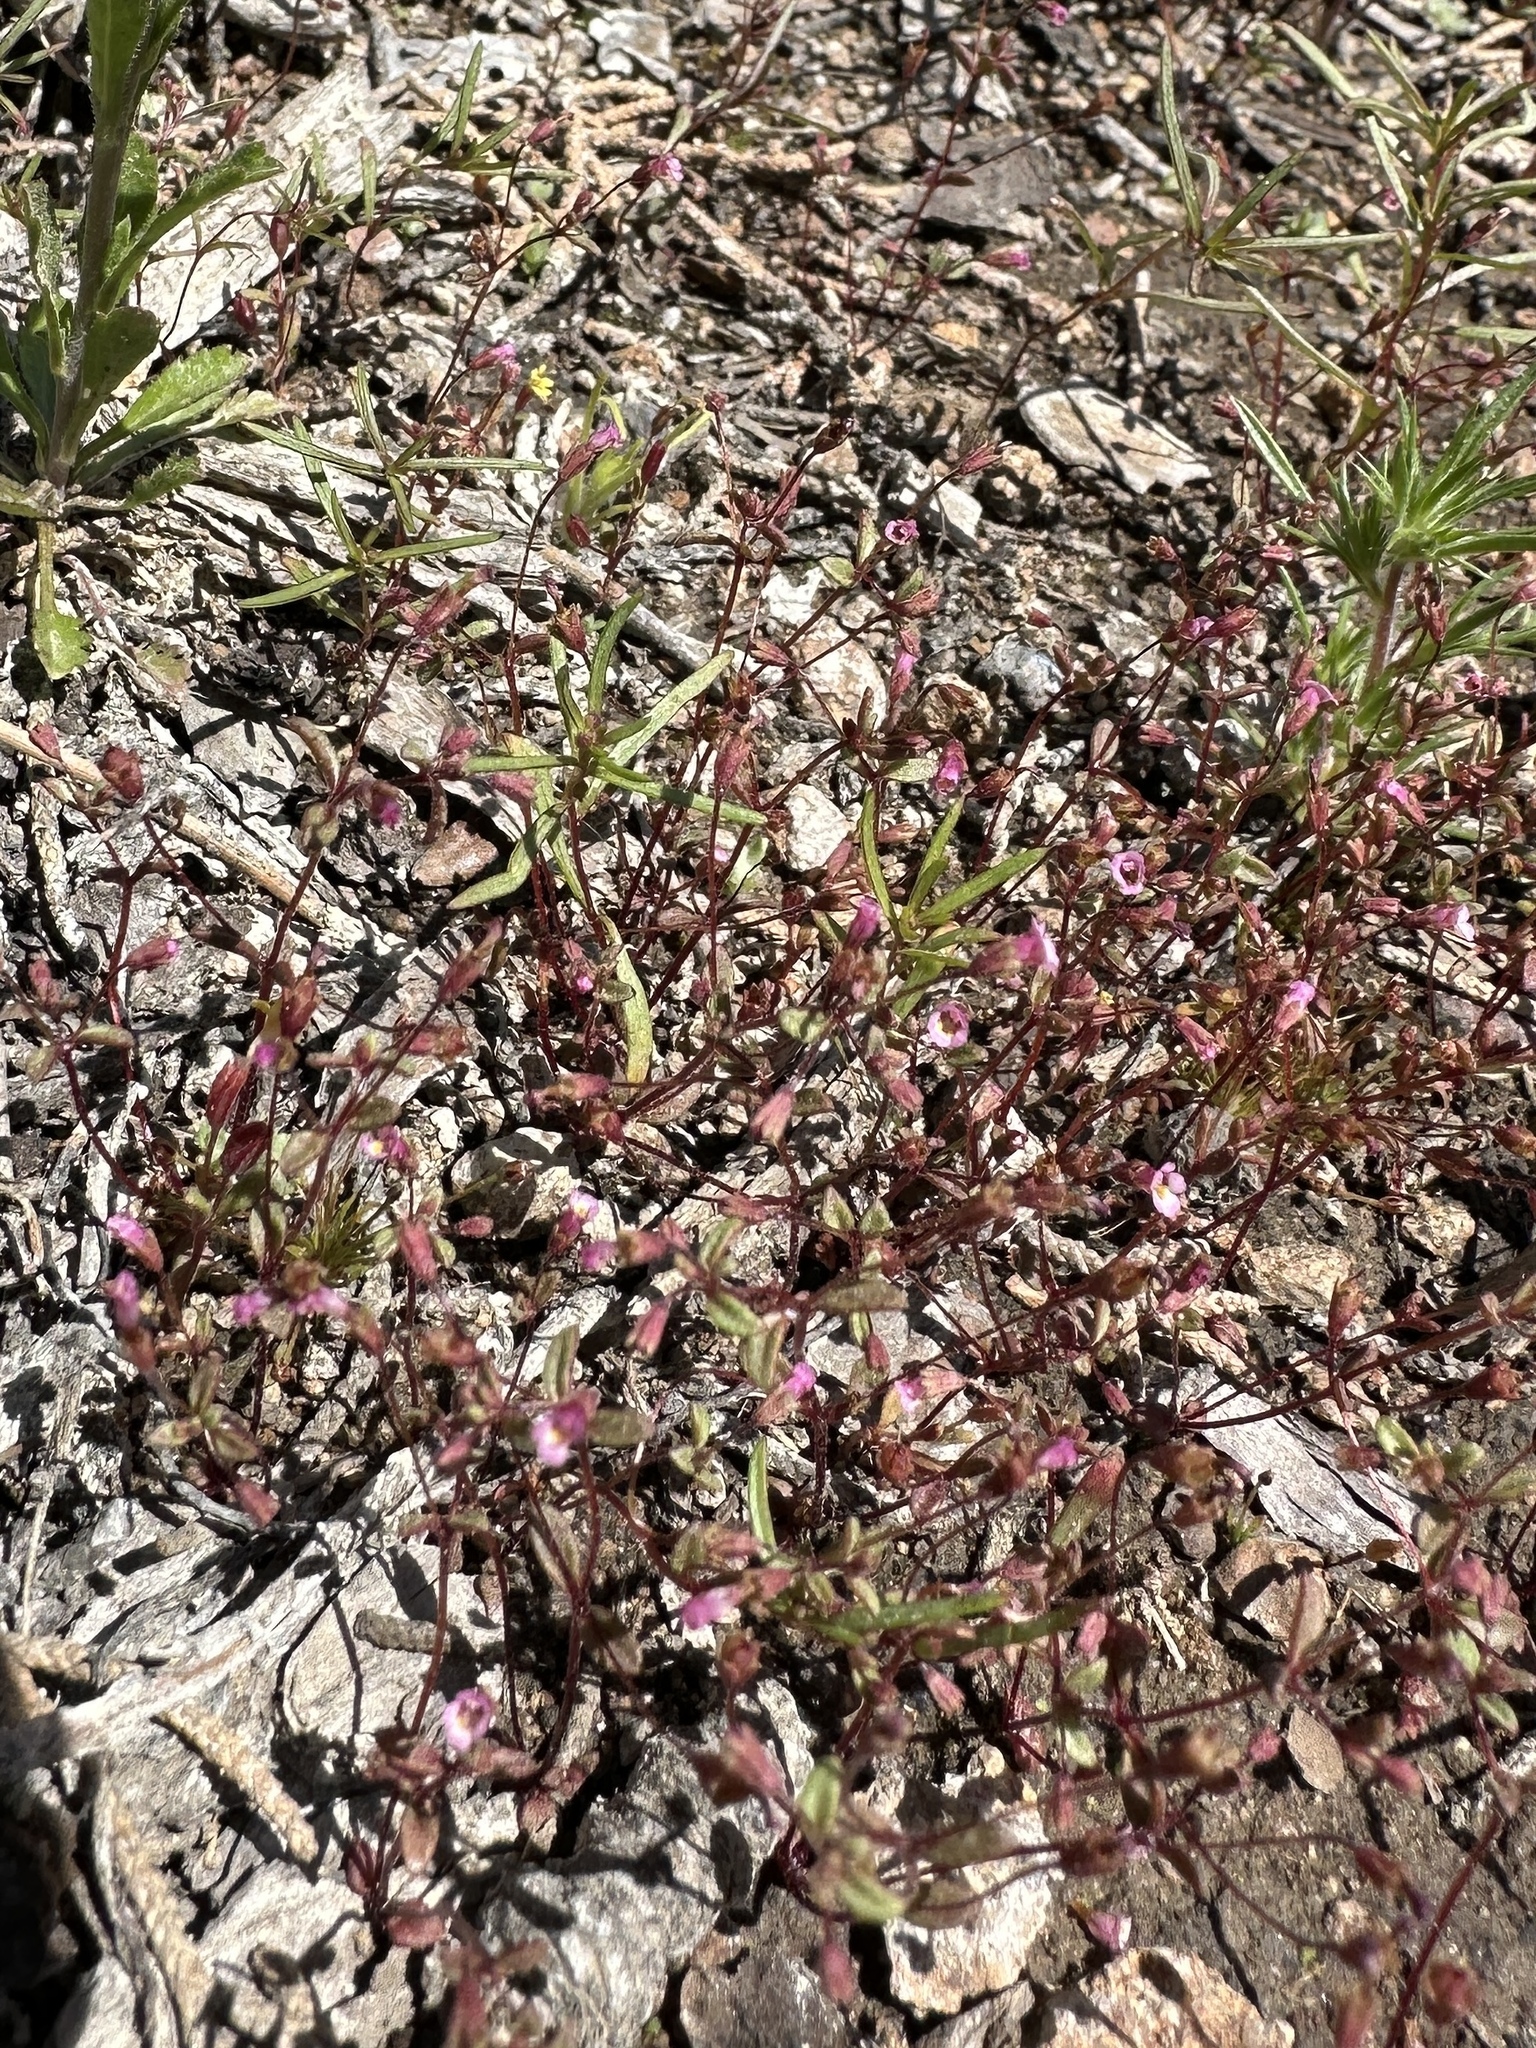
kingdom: Plantae
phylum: Tracheophyta
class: Magnoliopsida
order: Lamiales
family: Phrymaceae
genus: Erythranthe
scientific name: Erythranthe exigua
